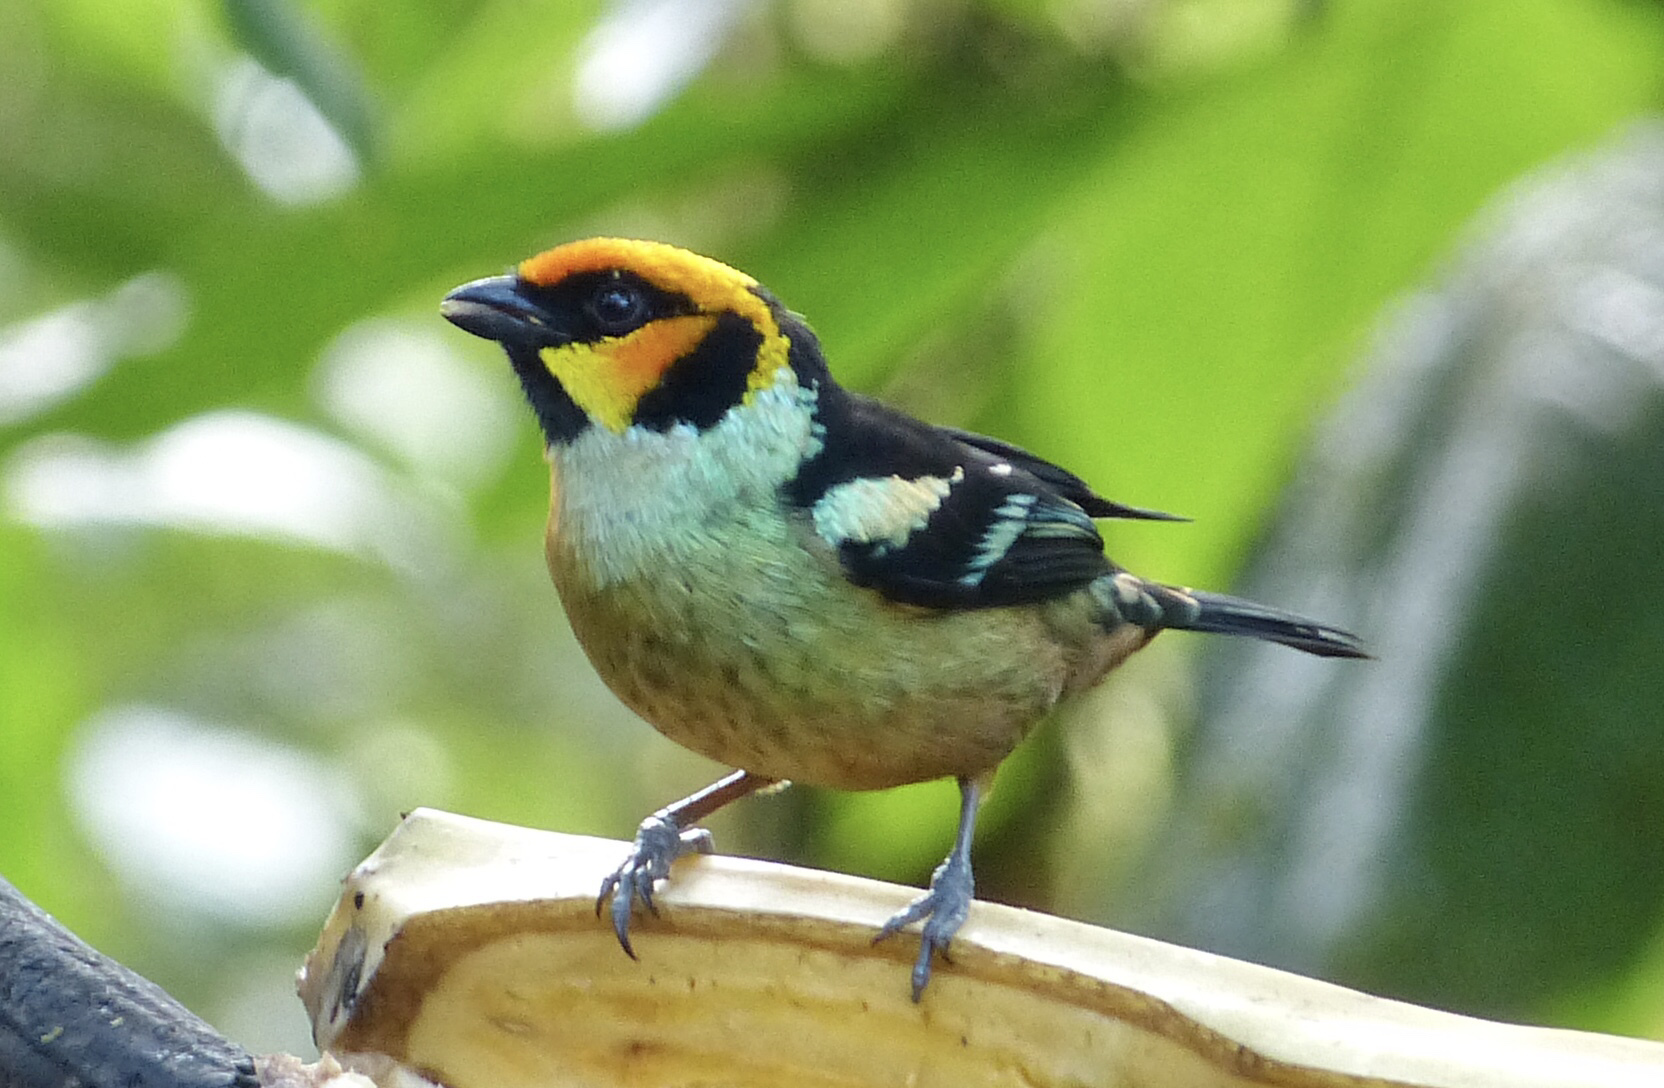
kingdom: Animalia
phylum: Chordata
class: Aves
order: Passeriformes
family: Thraupidae
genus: Tangara
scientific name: Tangara parzudakii
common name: Flame-faced tanager
